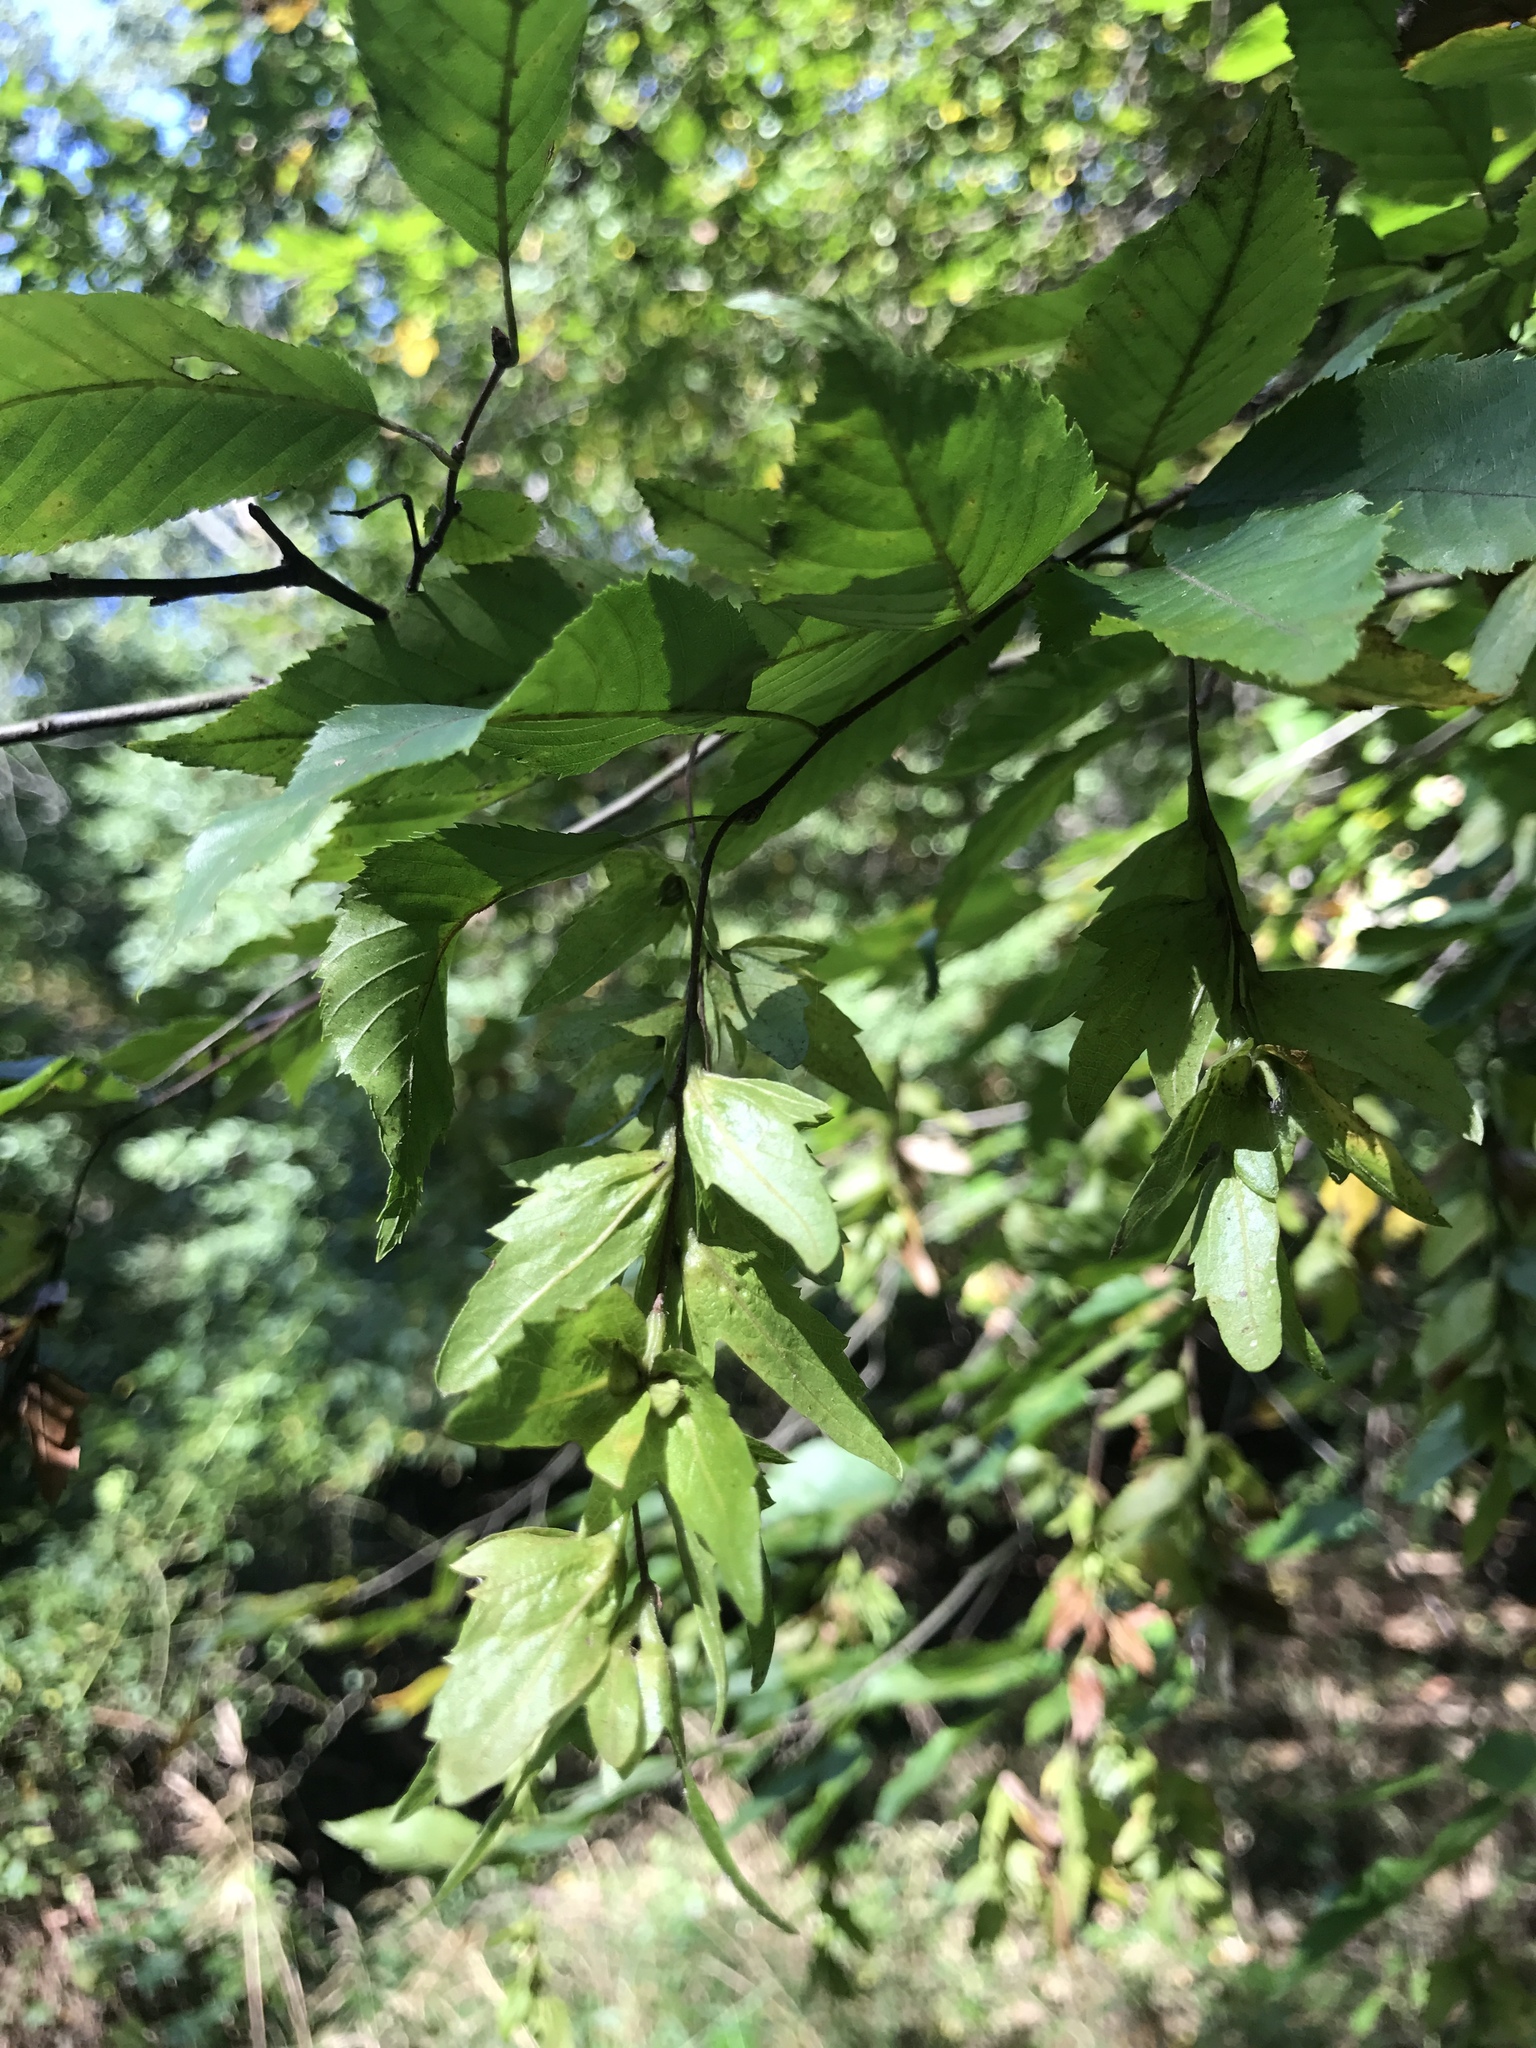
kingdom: Plantae
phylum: Tracheophyta
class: Magnoliopsida
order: Fagales
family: Betulaceae
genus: Carpinus
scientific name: Carpinus caroliniana
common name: American hornbeam
